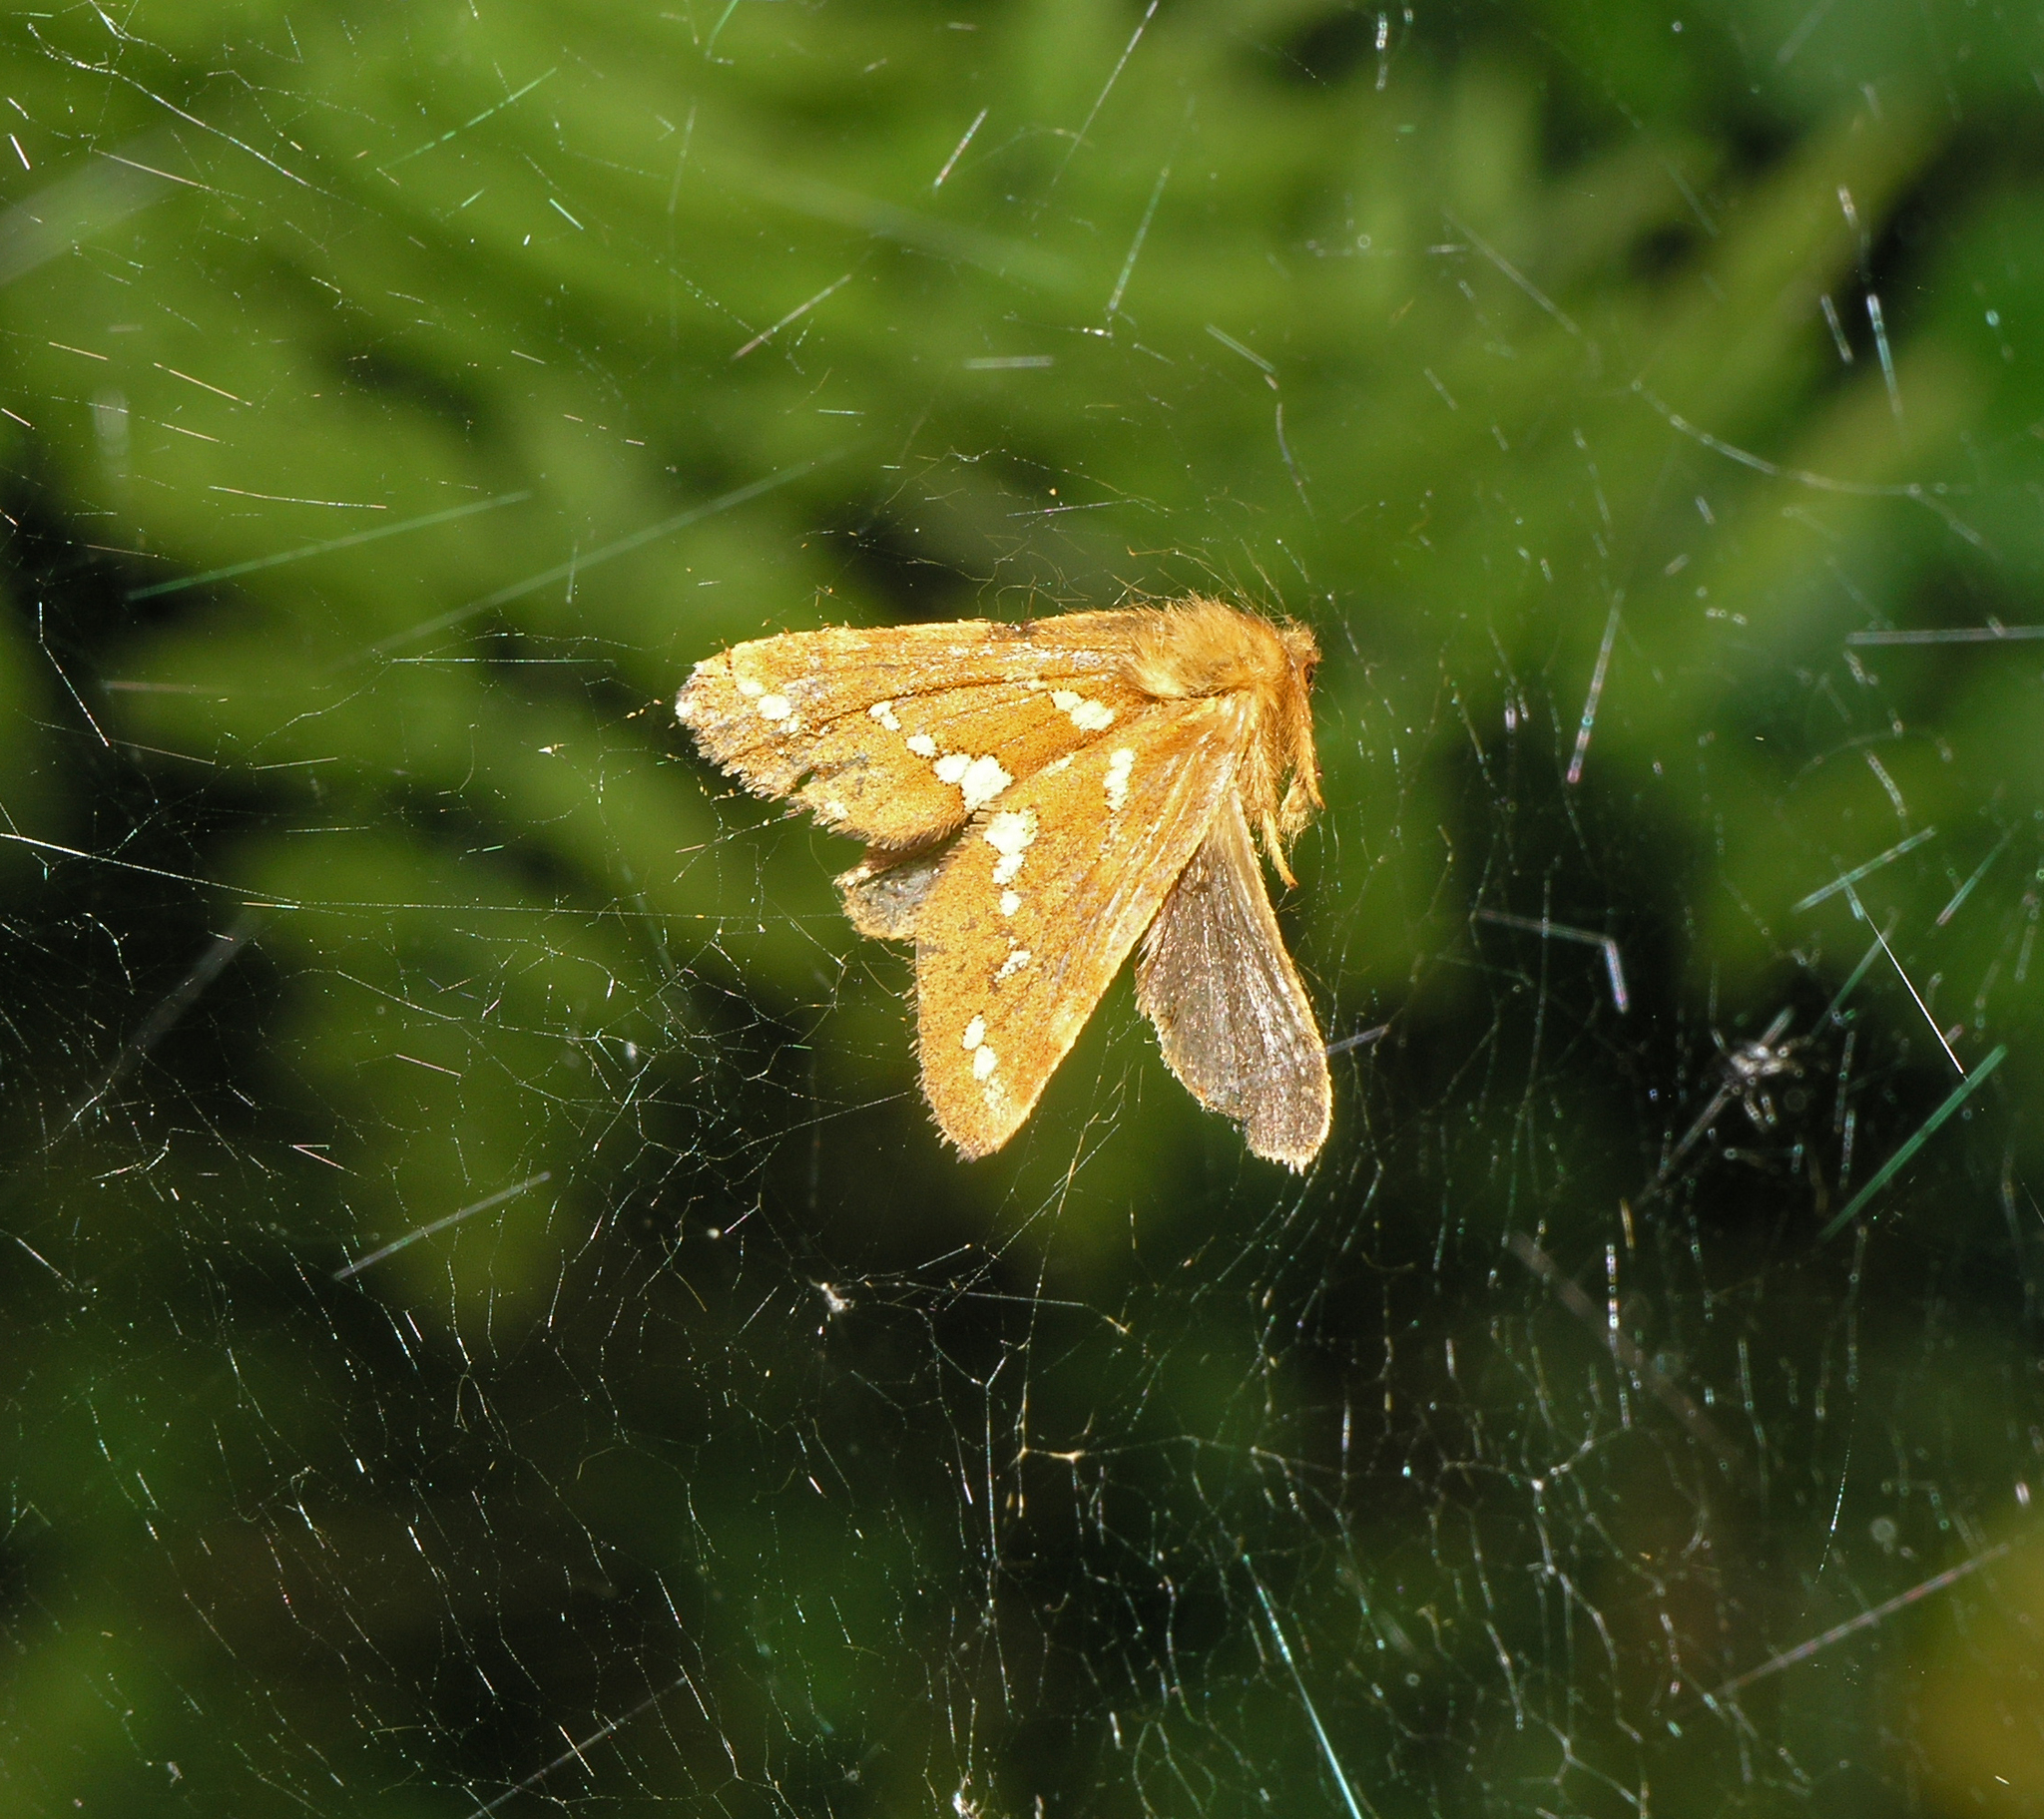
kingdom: Animalia
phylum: Arthropoda
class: Insecta
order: Lepidoptera
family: Hepialidae
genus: Phymatopus
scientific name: Phymatopus hecta
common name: Gold swift
